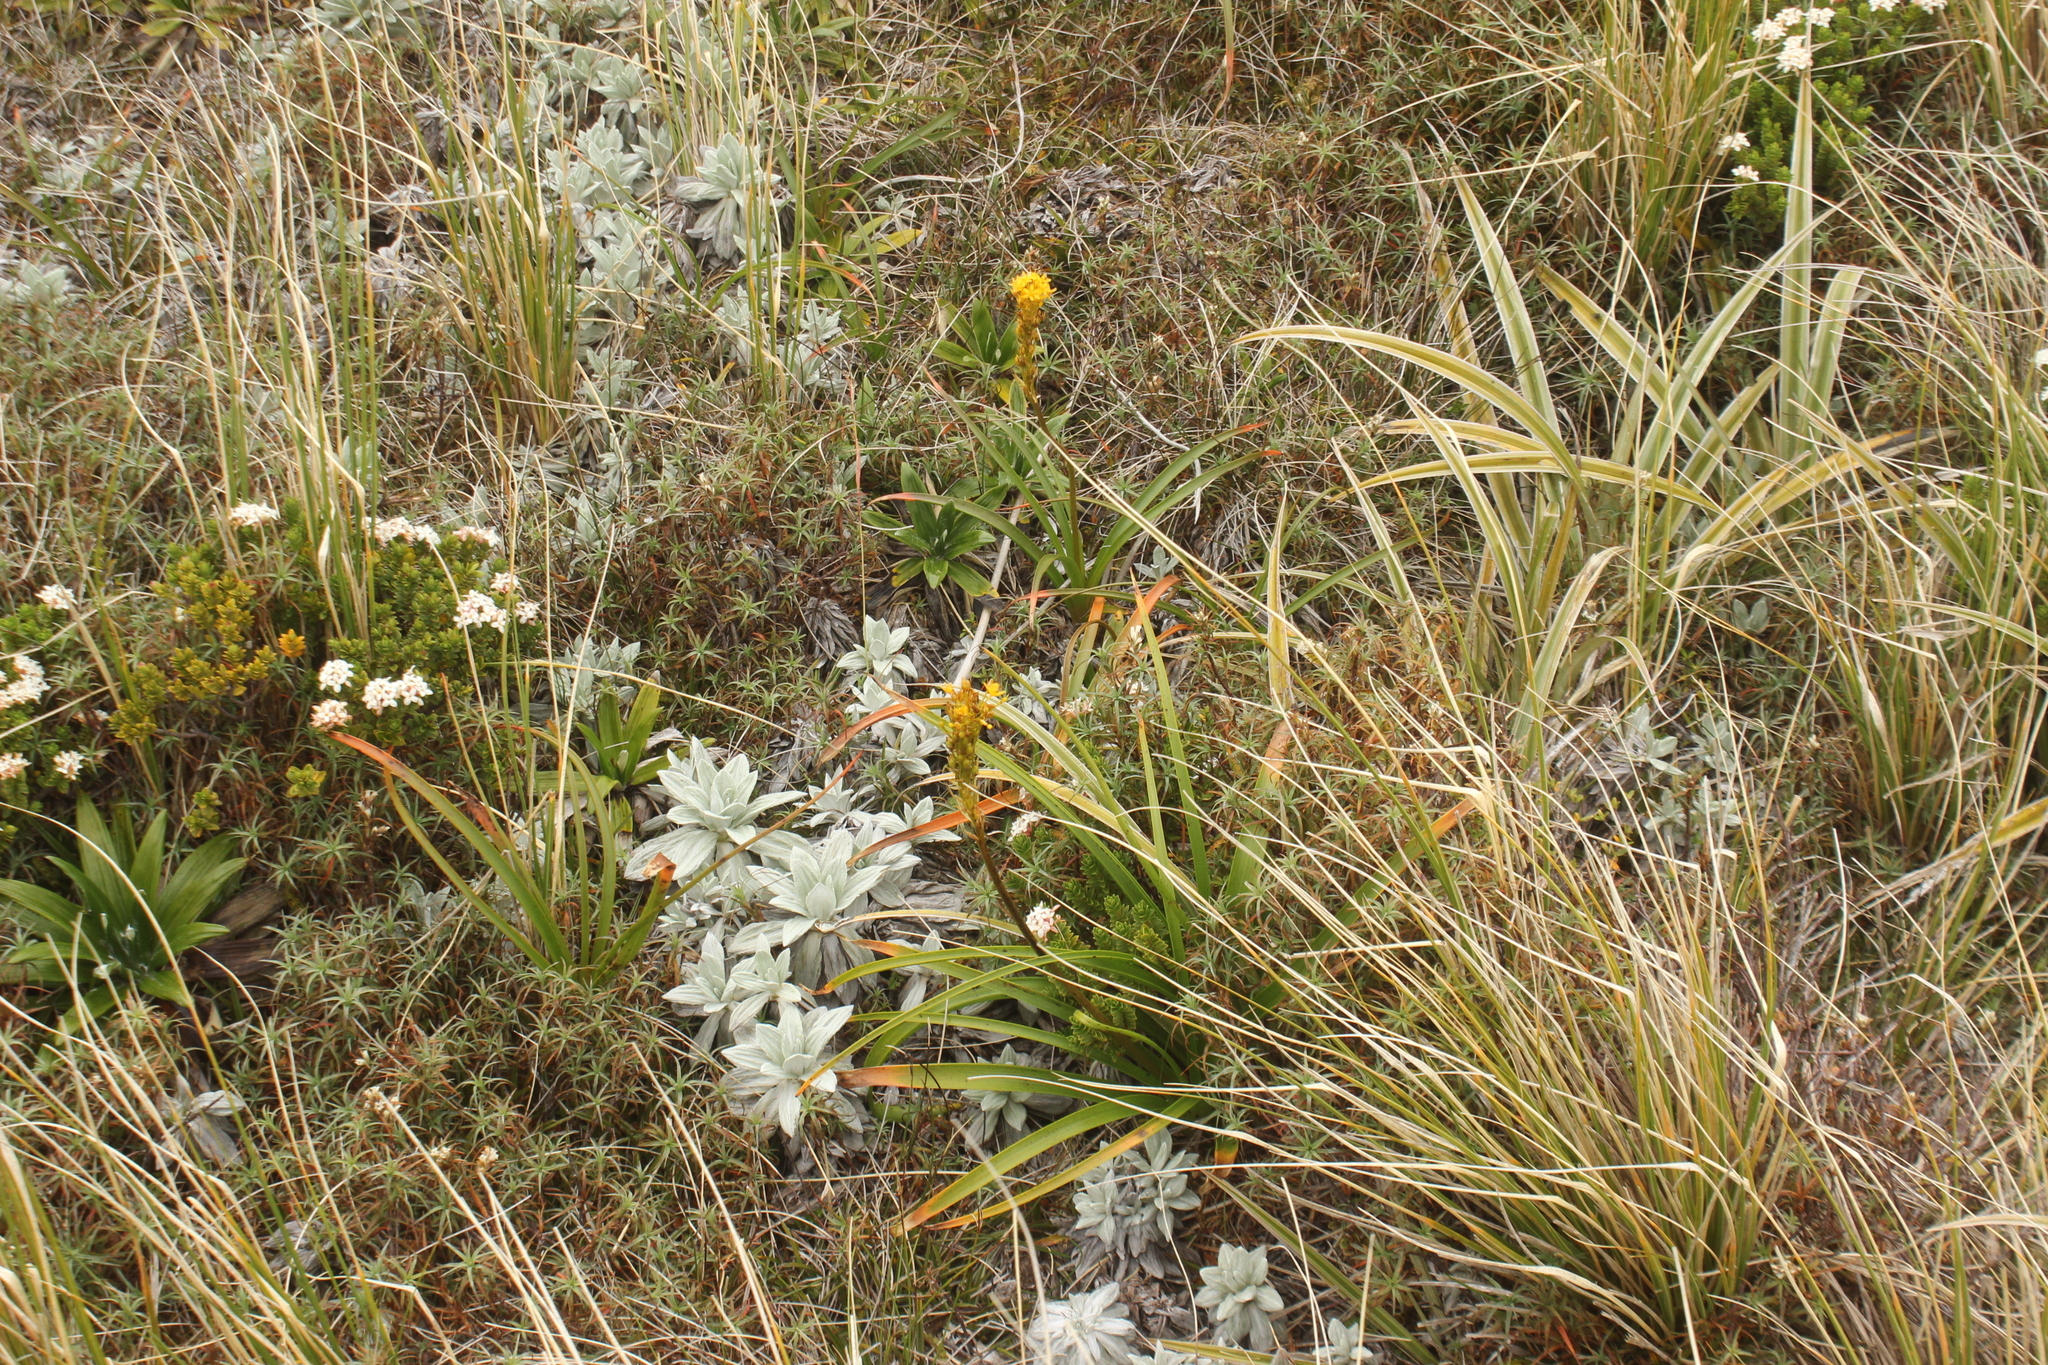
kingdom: Plantae
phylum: Tracheophyta
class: Liliopsida
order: Asparagales
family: Asphodelaceae
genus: Bulbinella
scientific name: Bulbinella hookeri
